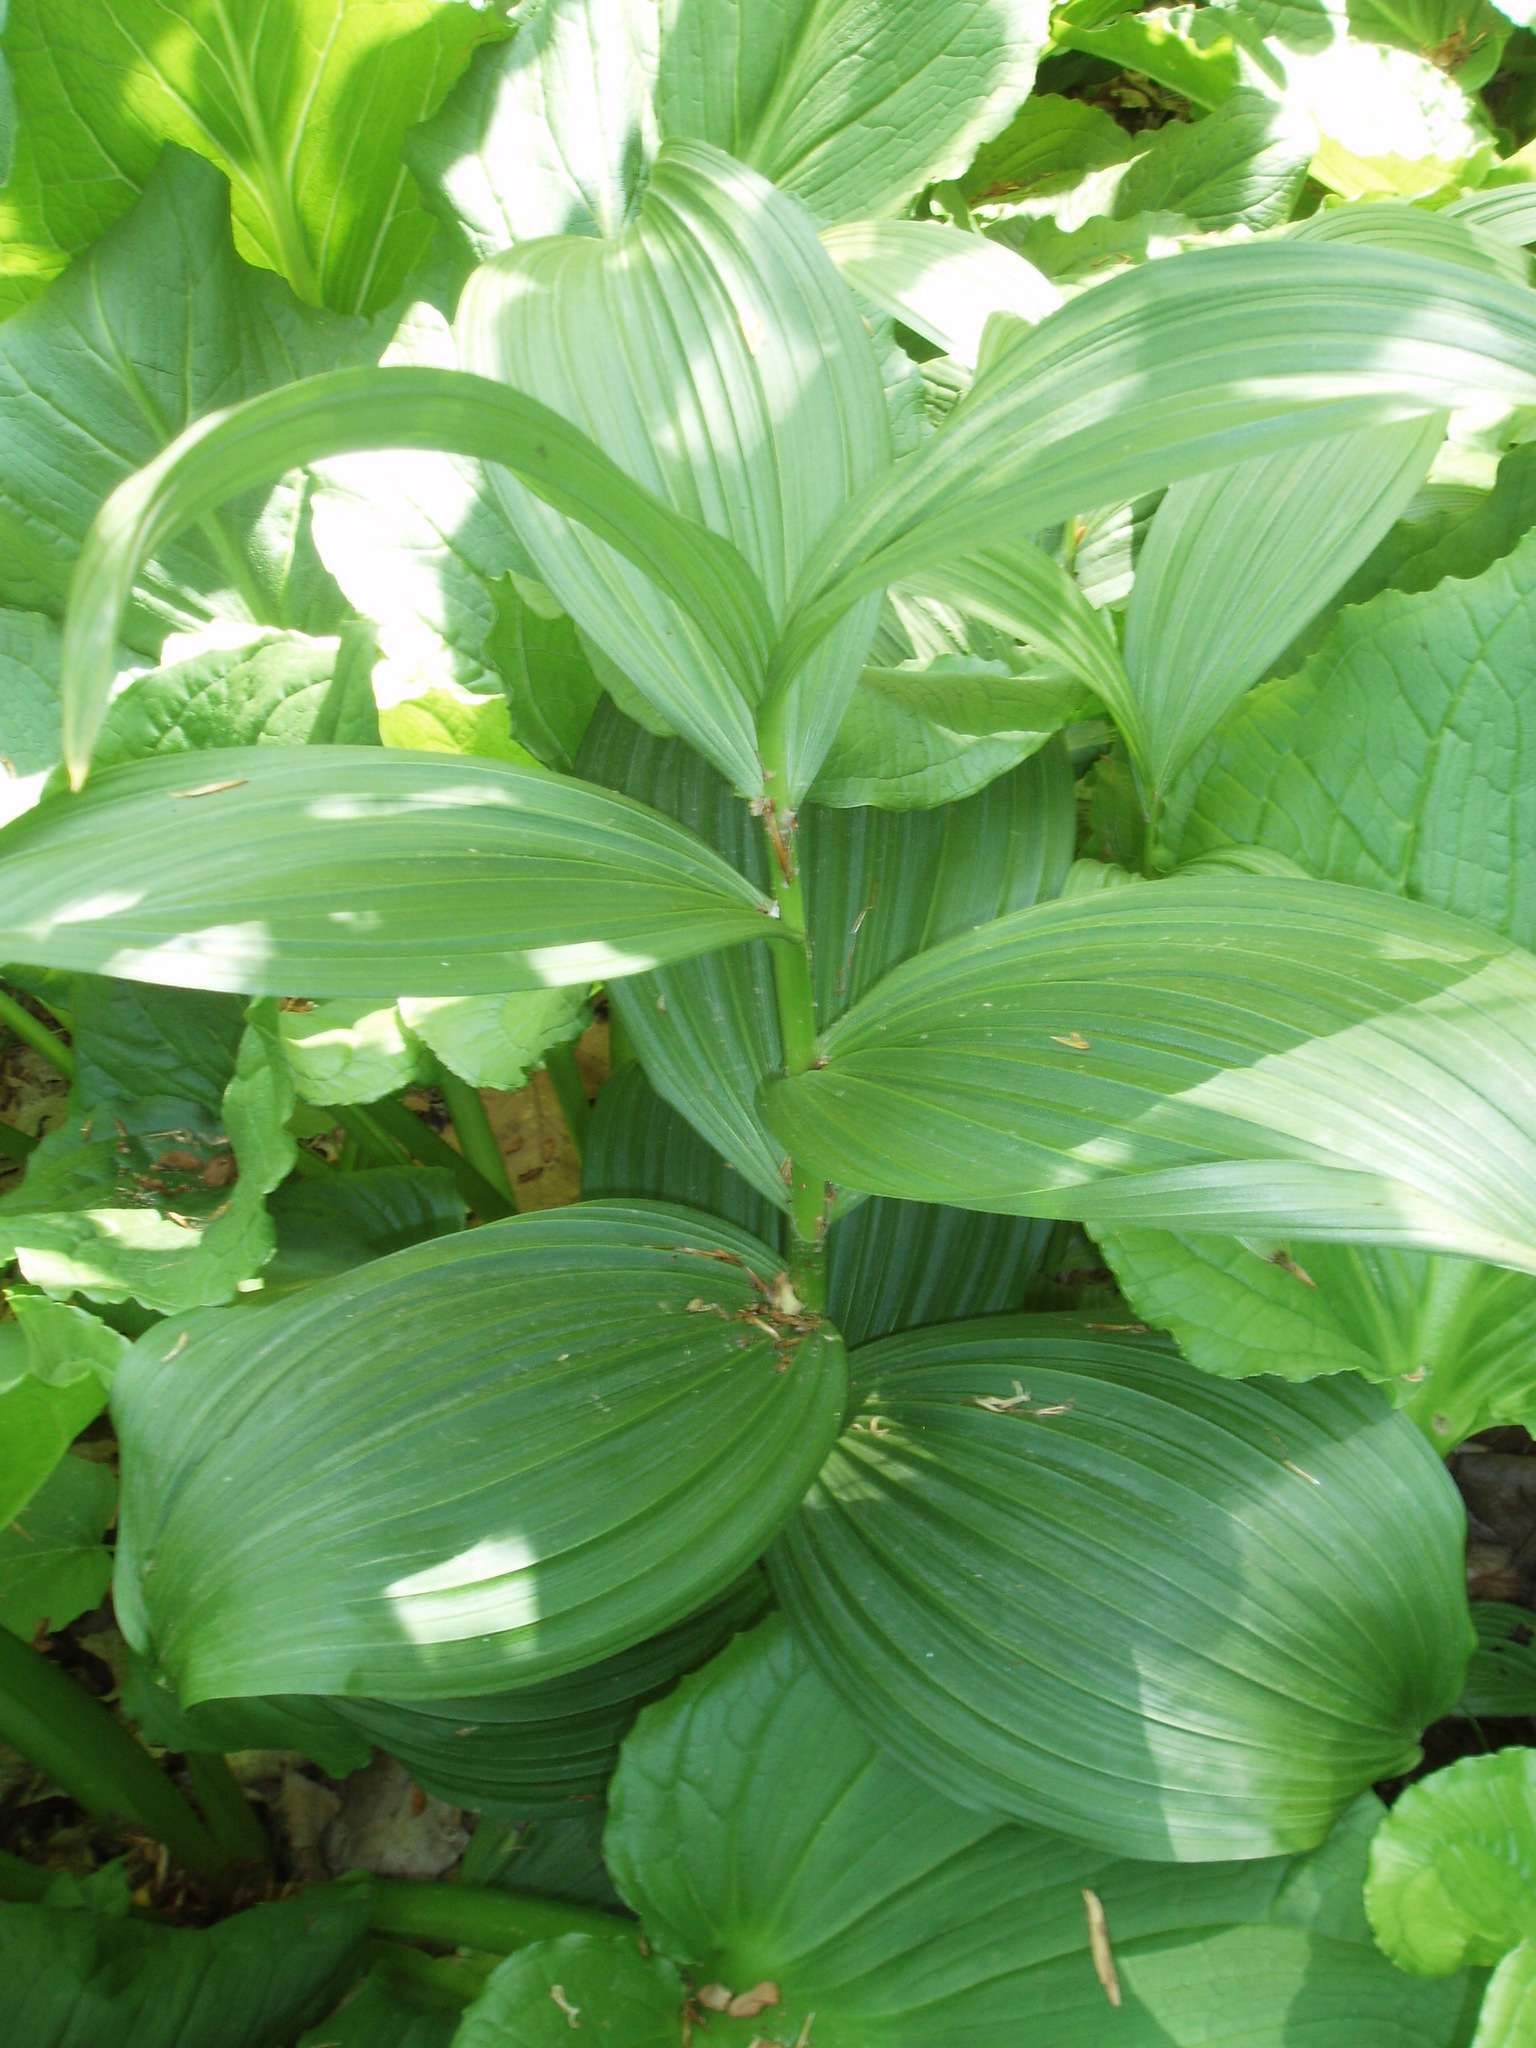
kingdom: Plantae
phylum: Tracheophyta
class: Liliopsida
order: Liliales
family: Melanthiaceae
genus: Veratrum
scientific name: Veratrum viride
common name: American false hellebore
